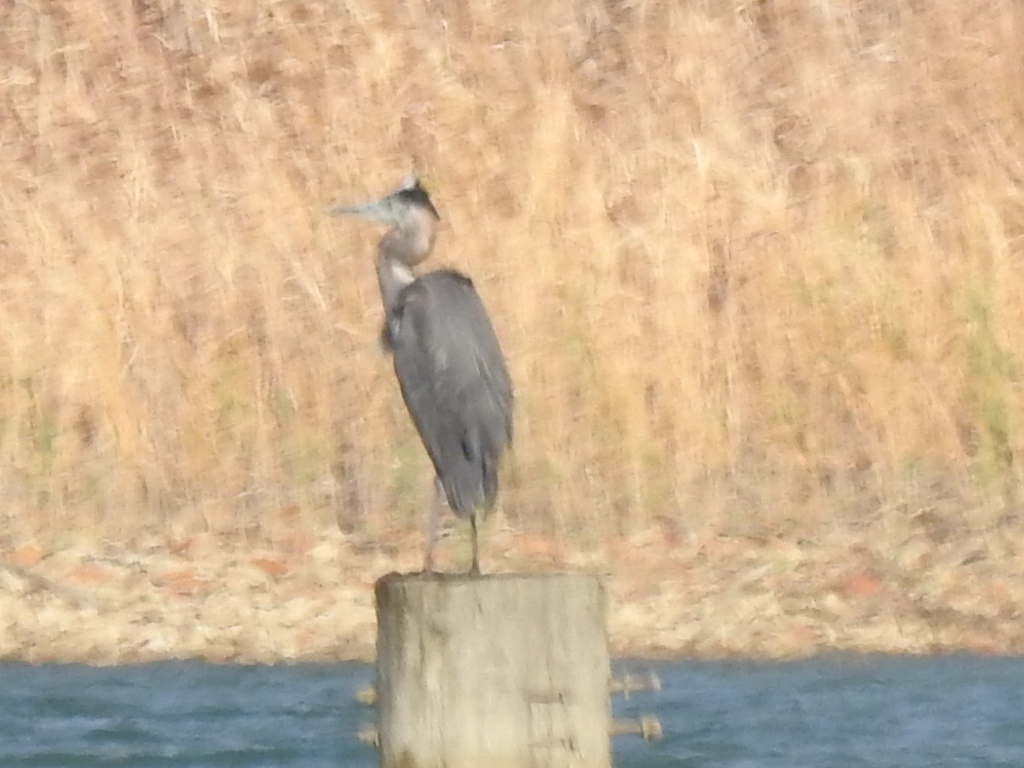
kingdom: Animalia
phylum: Chordata
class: Aves
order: Pelecaniformes
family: Ardeidae
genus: Ardea
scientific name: Ardea herodias
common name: Great blue heron
